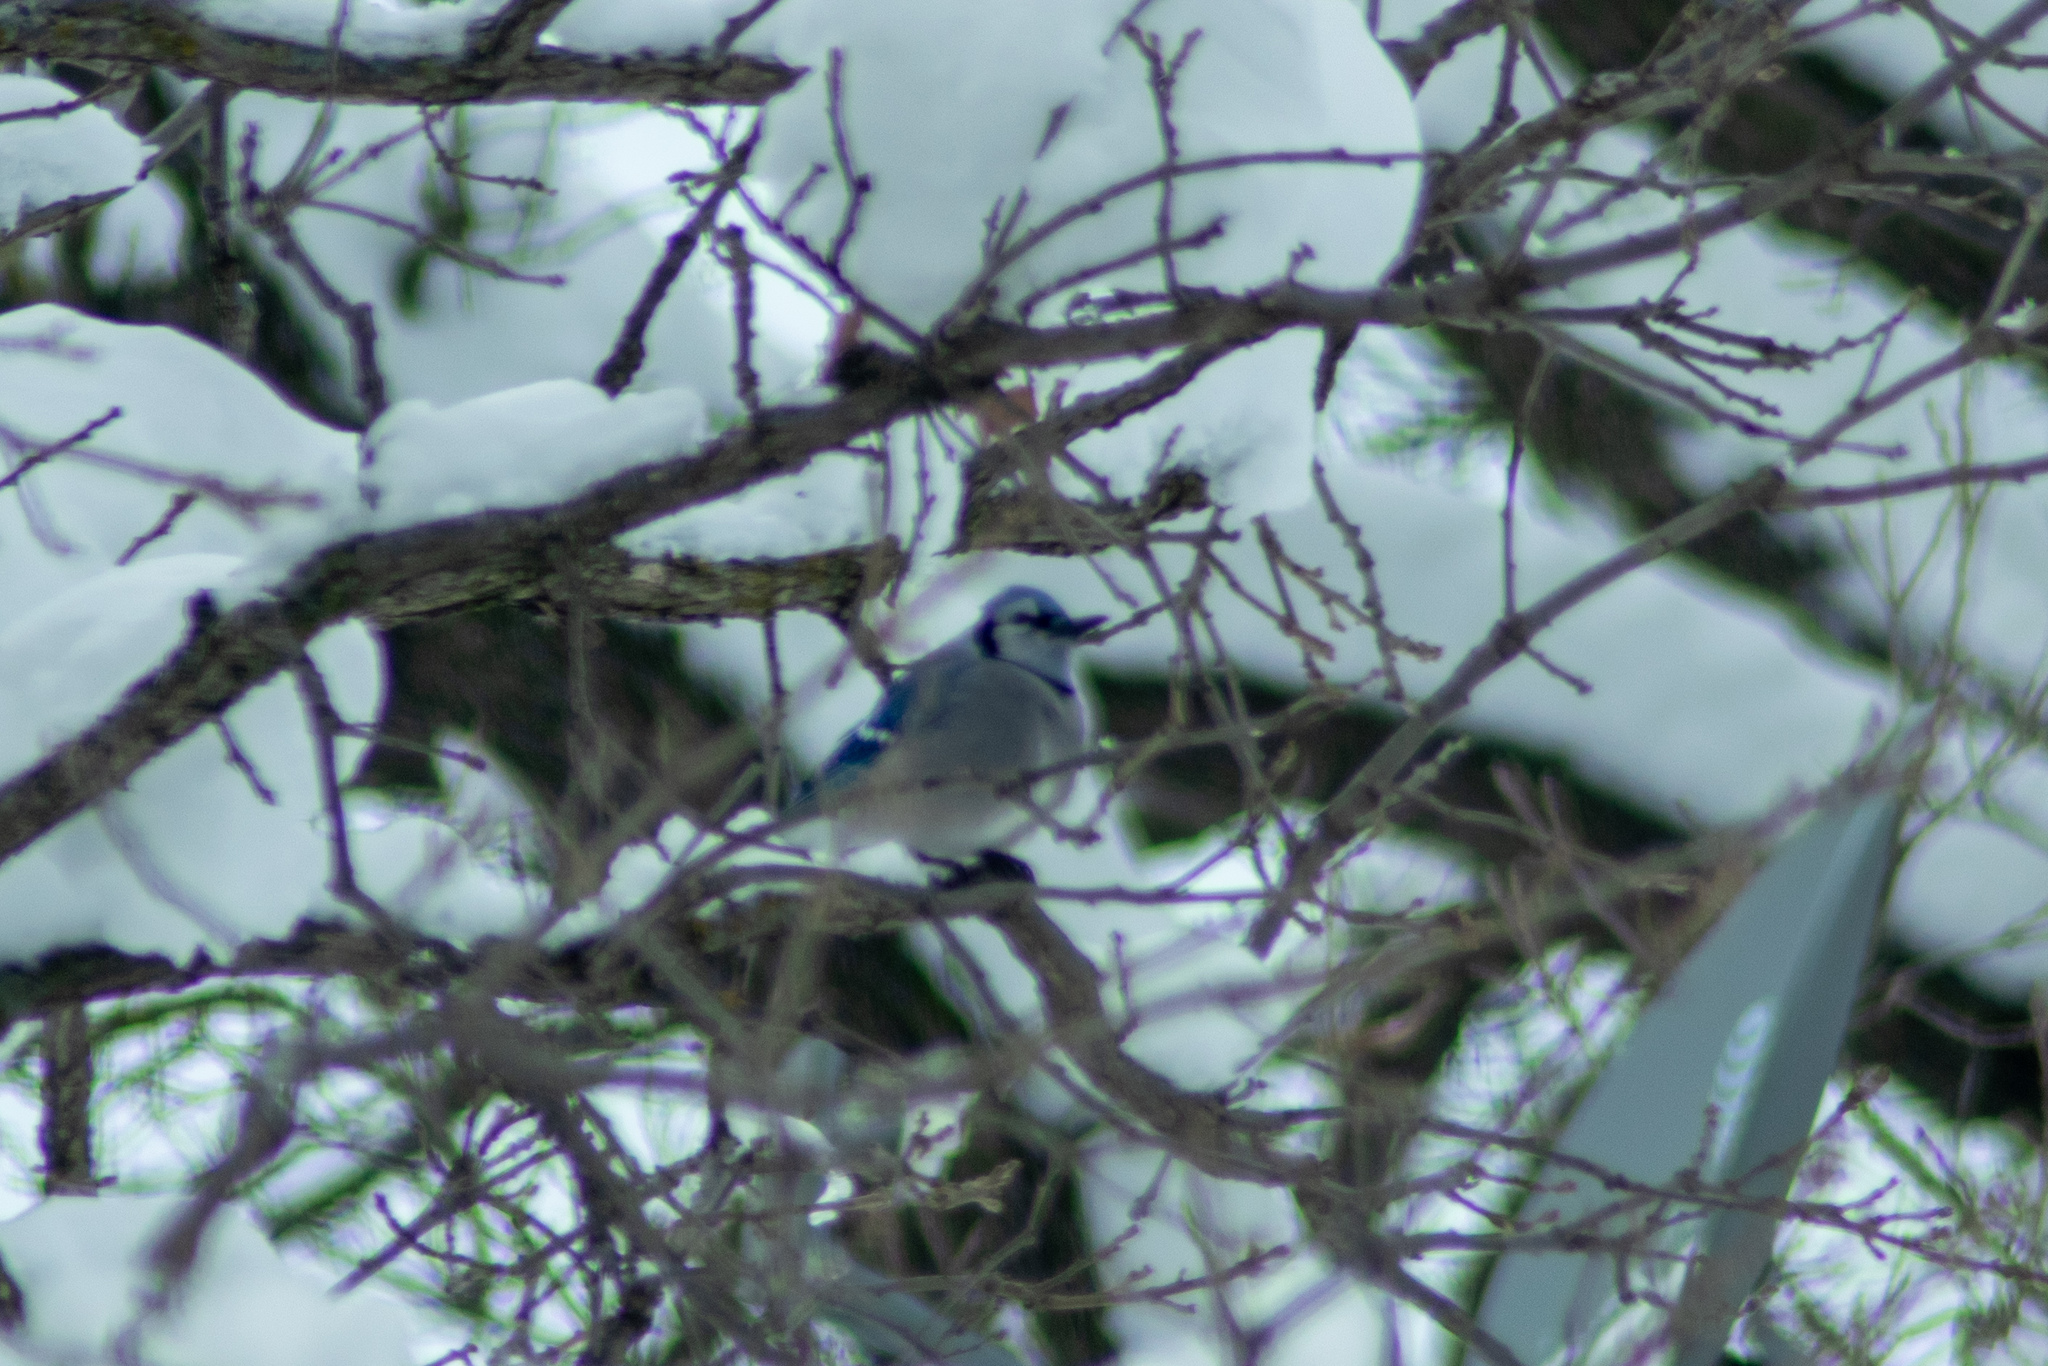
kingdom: Animalia
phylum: Chordata
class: Aves
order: Passeriformes
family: Corvidae
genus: Cyanocitta
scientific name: Cyanocitta cristata
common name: Blue jay
